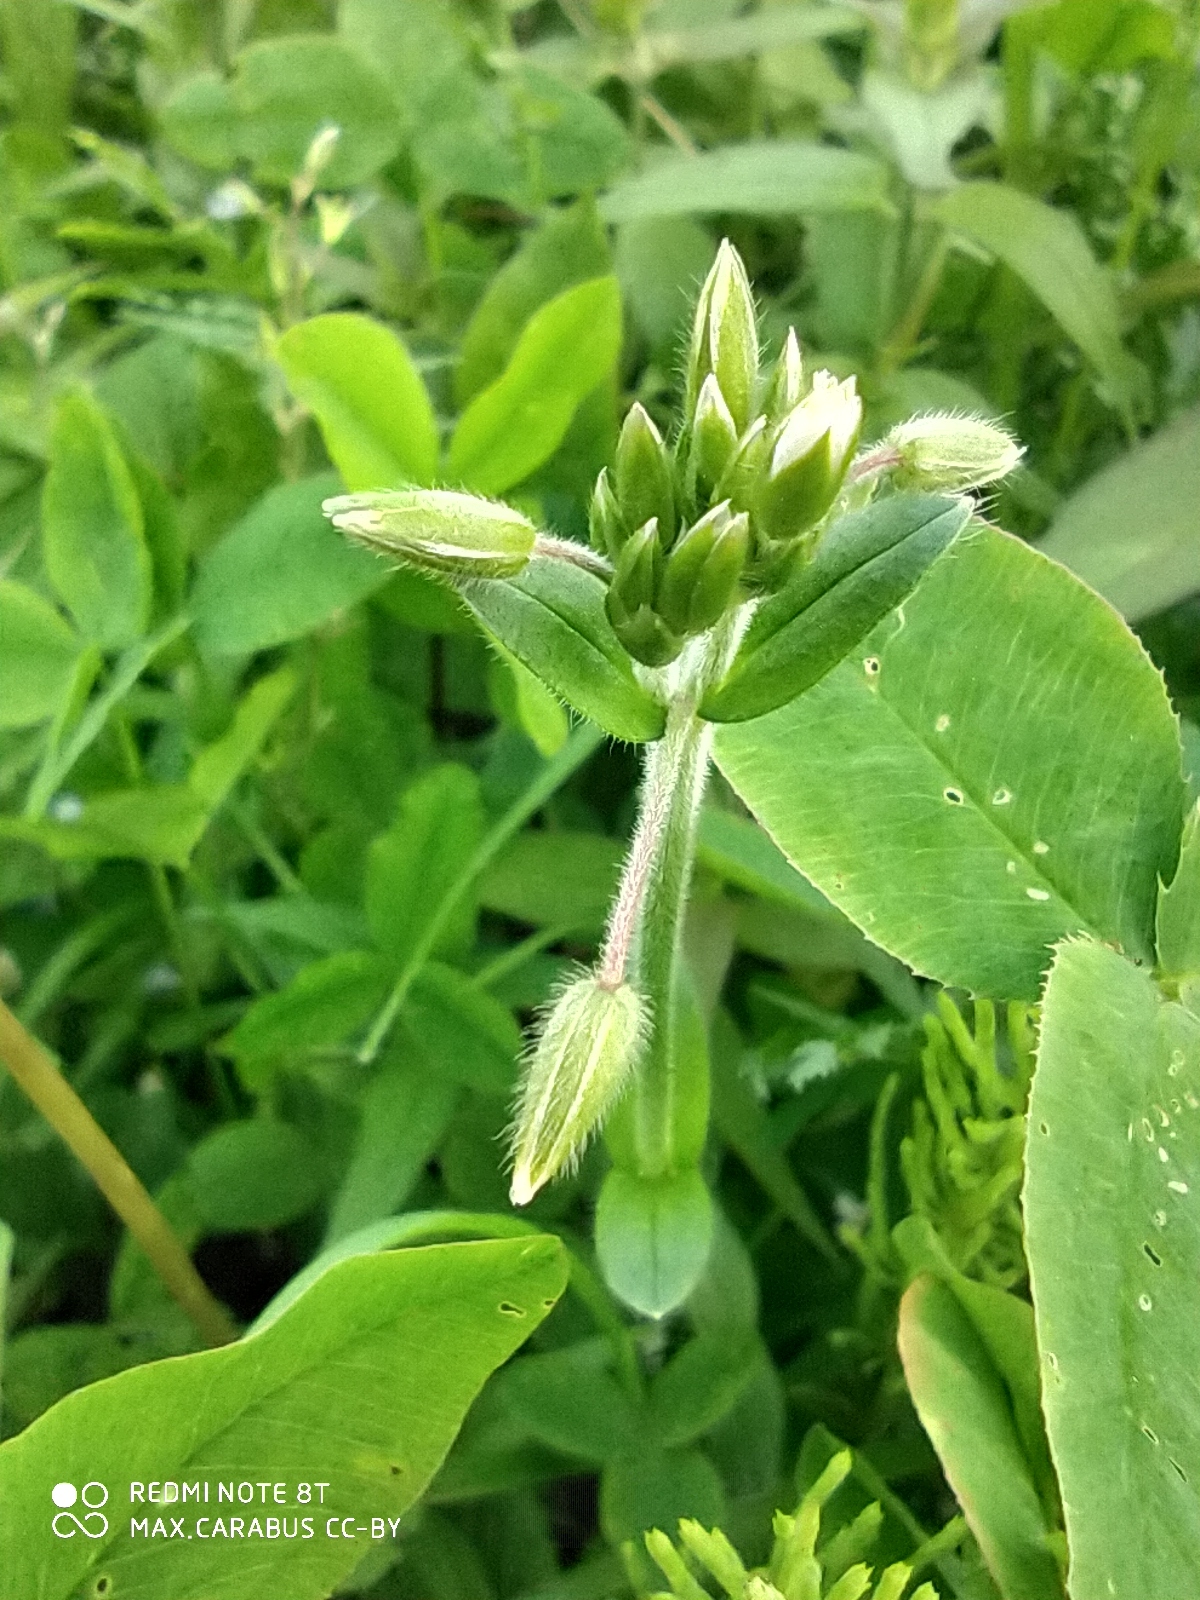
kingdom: Plantae
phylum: Tracheophyta
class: Magnoliopsida
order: Caryophyllales
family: Caryophyllaceae
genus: Cerastium
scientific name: Cerastium holosteoides
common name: Big chickweed
